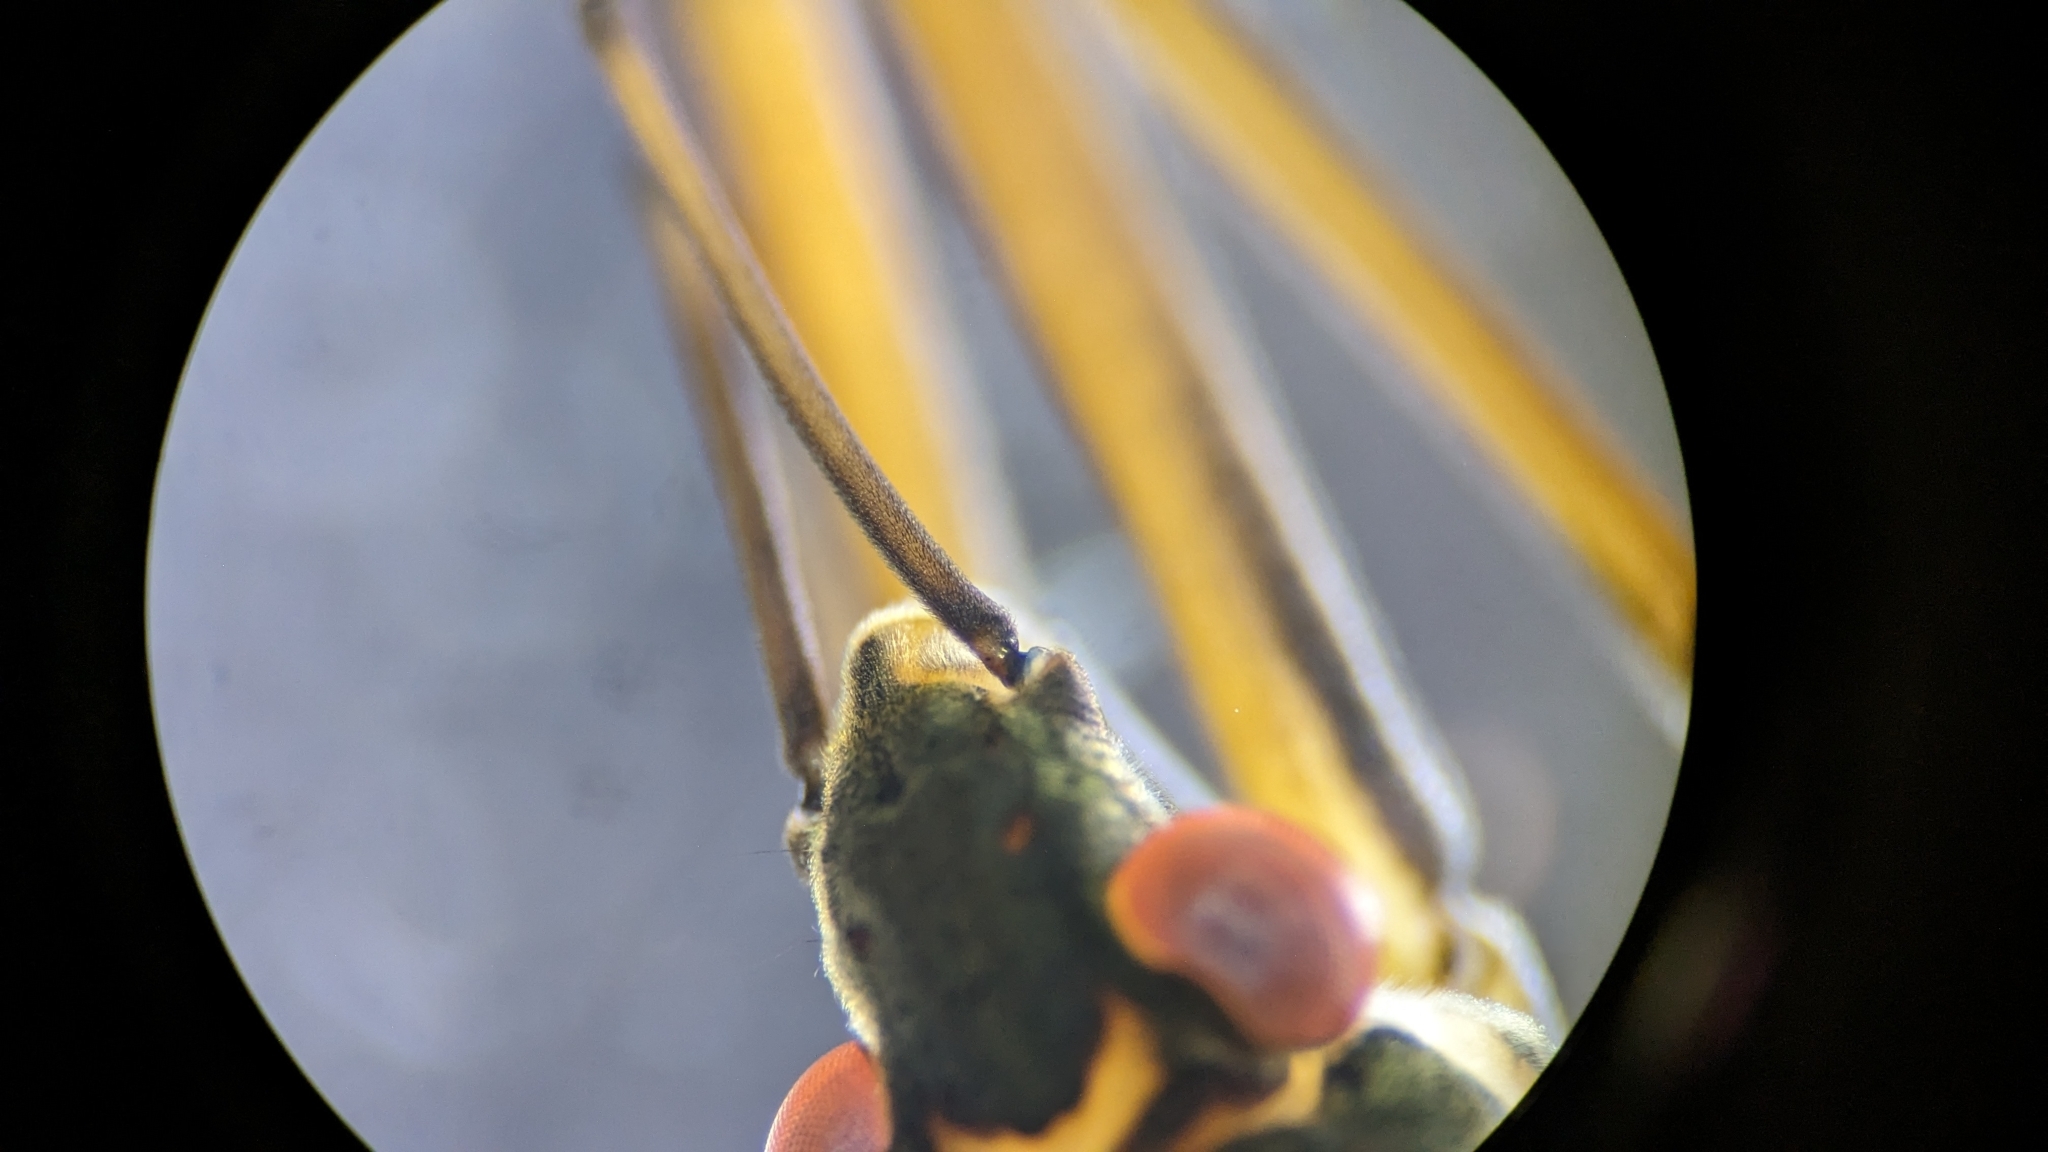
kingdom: Animalia
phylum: Arthropoda
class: Insecta
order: Hemiptera
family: Gerridae
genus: Aquarius
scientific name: Aquarius remigis
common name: Common water strider
